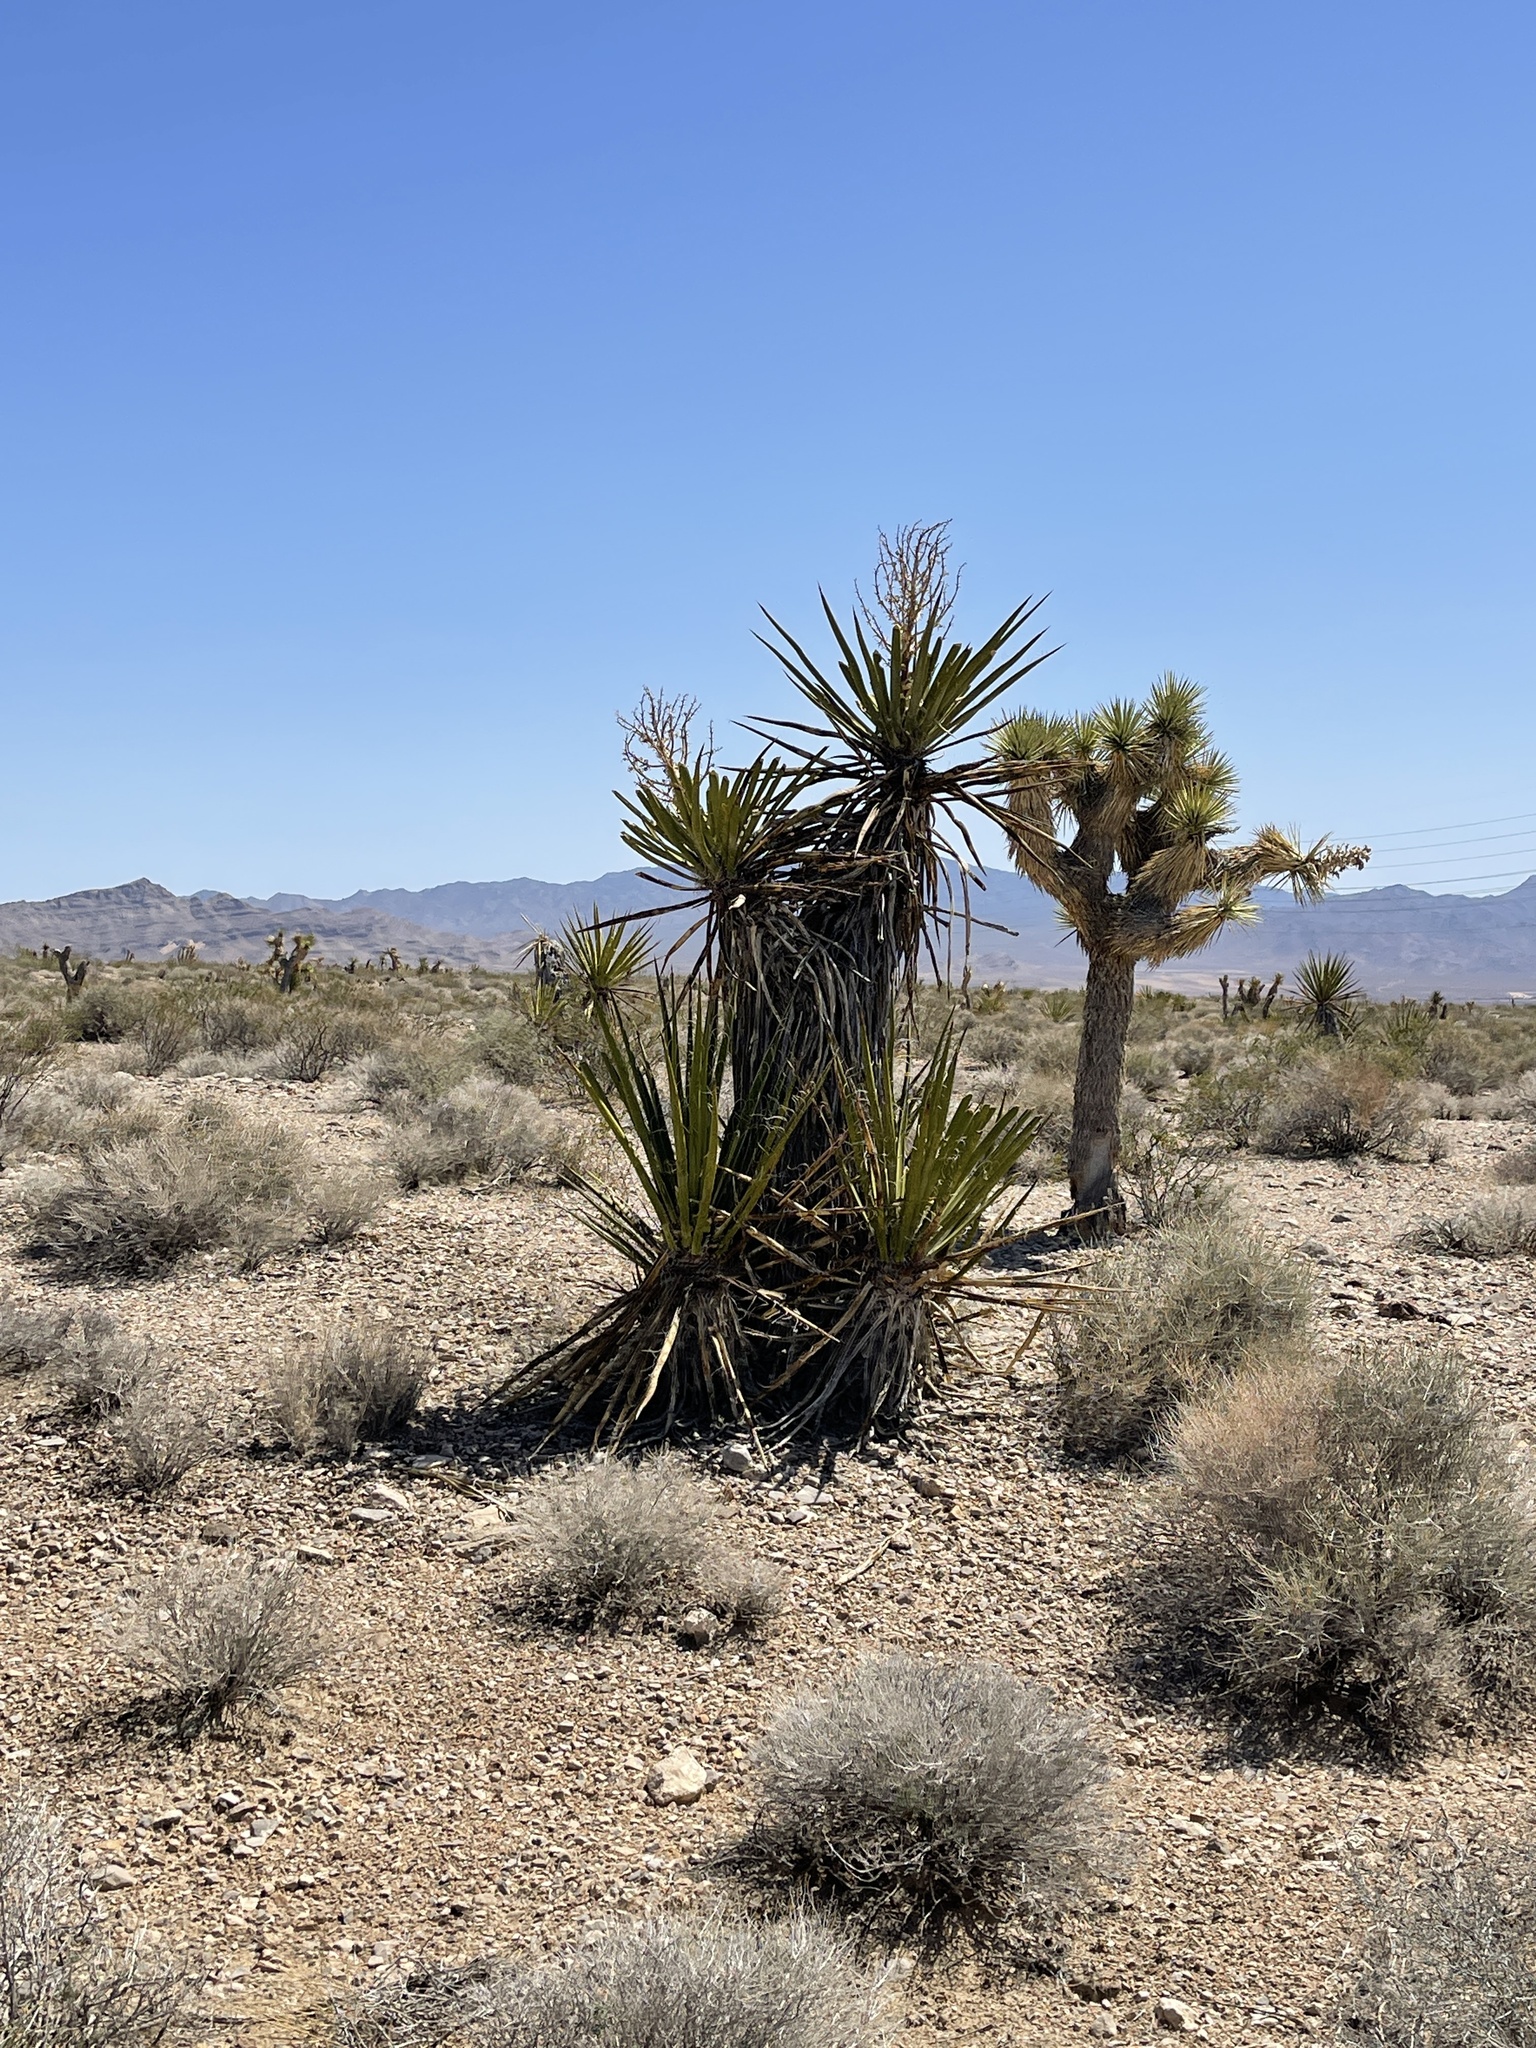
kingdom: Plantae
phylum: Tracheophyta
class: Liliopsida
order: Asparagales
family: Asparagaceae
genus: Yucca
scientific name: Yucca schidigera
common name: Mojave yucca
